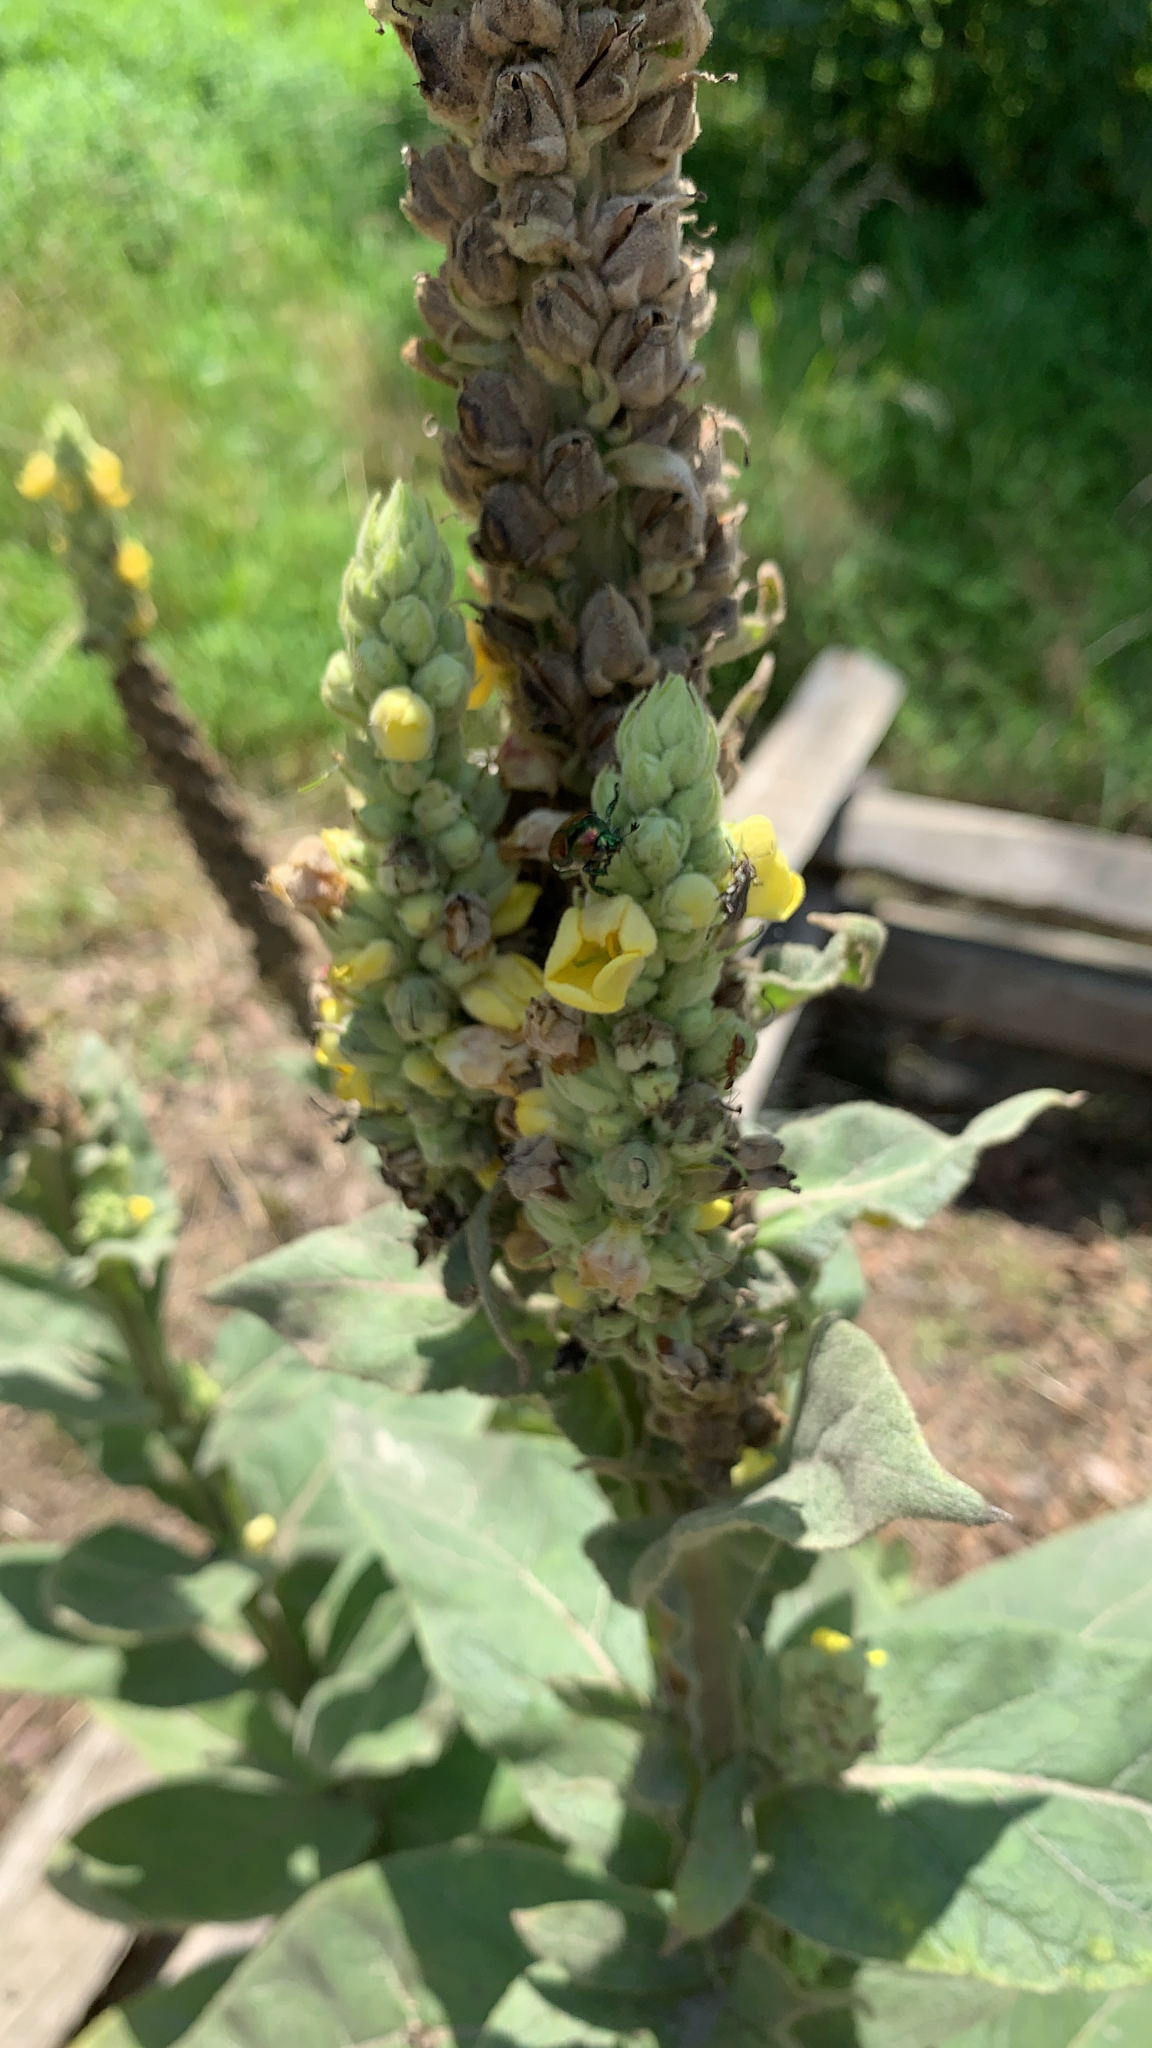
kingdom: Plantae
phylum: Tracheophyta
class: Magnoliopsida
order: Lamiales
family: Scrophulariaceae
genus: Verbascum
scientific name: Verbascum thapsus
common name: Common mullein
